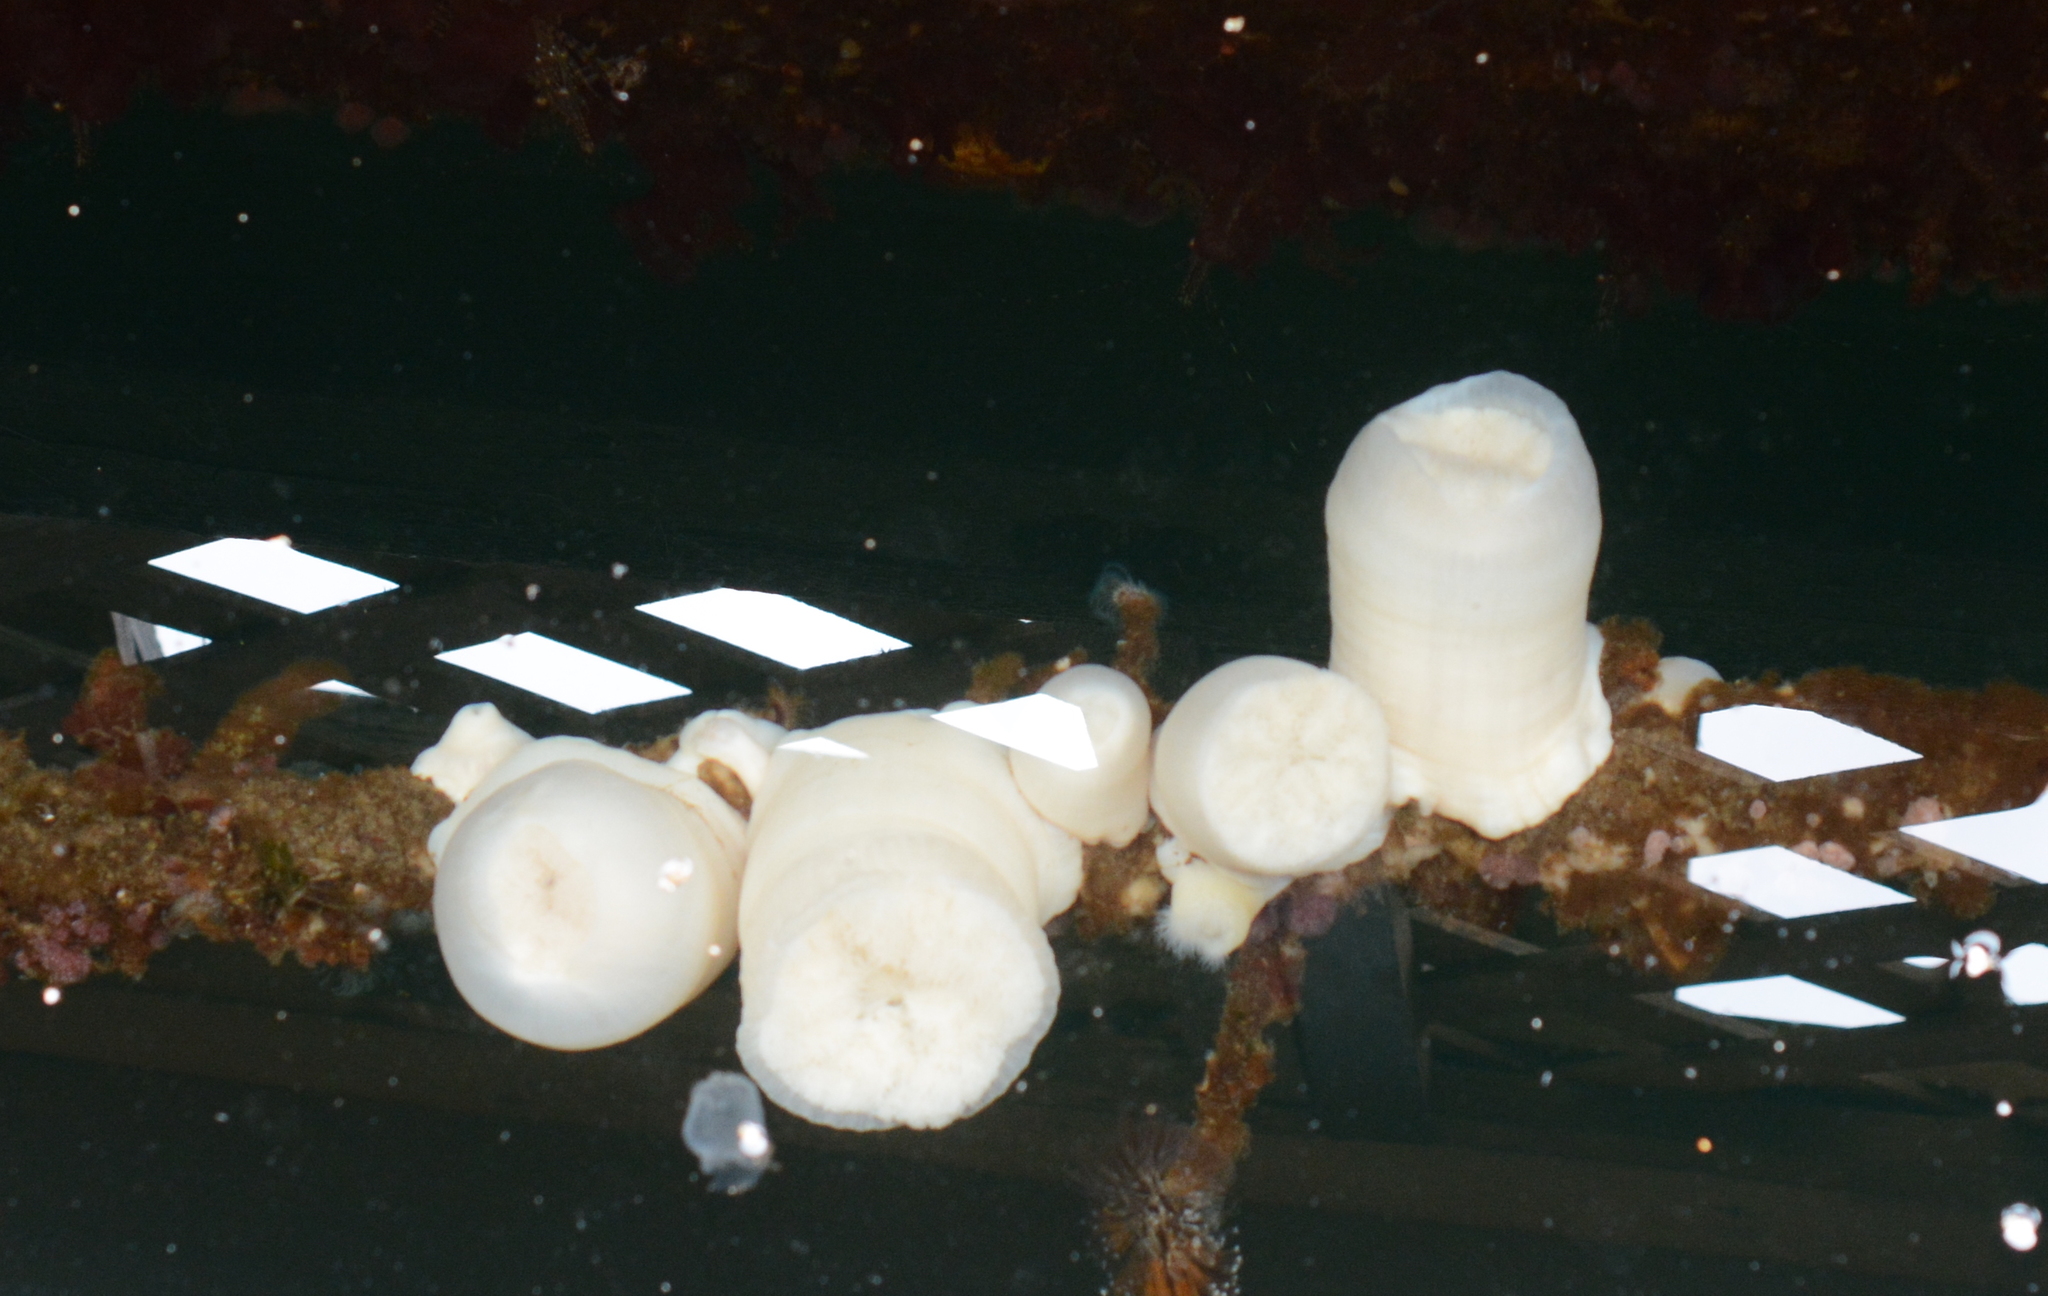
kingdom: Animalia
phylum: Cnidaria
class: Anthozoa
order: Actiniaria
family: Metridiidae
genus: Metridium
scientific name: Metridium senile
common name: Clonal plumose anemone
